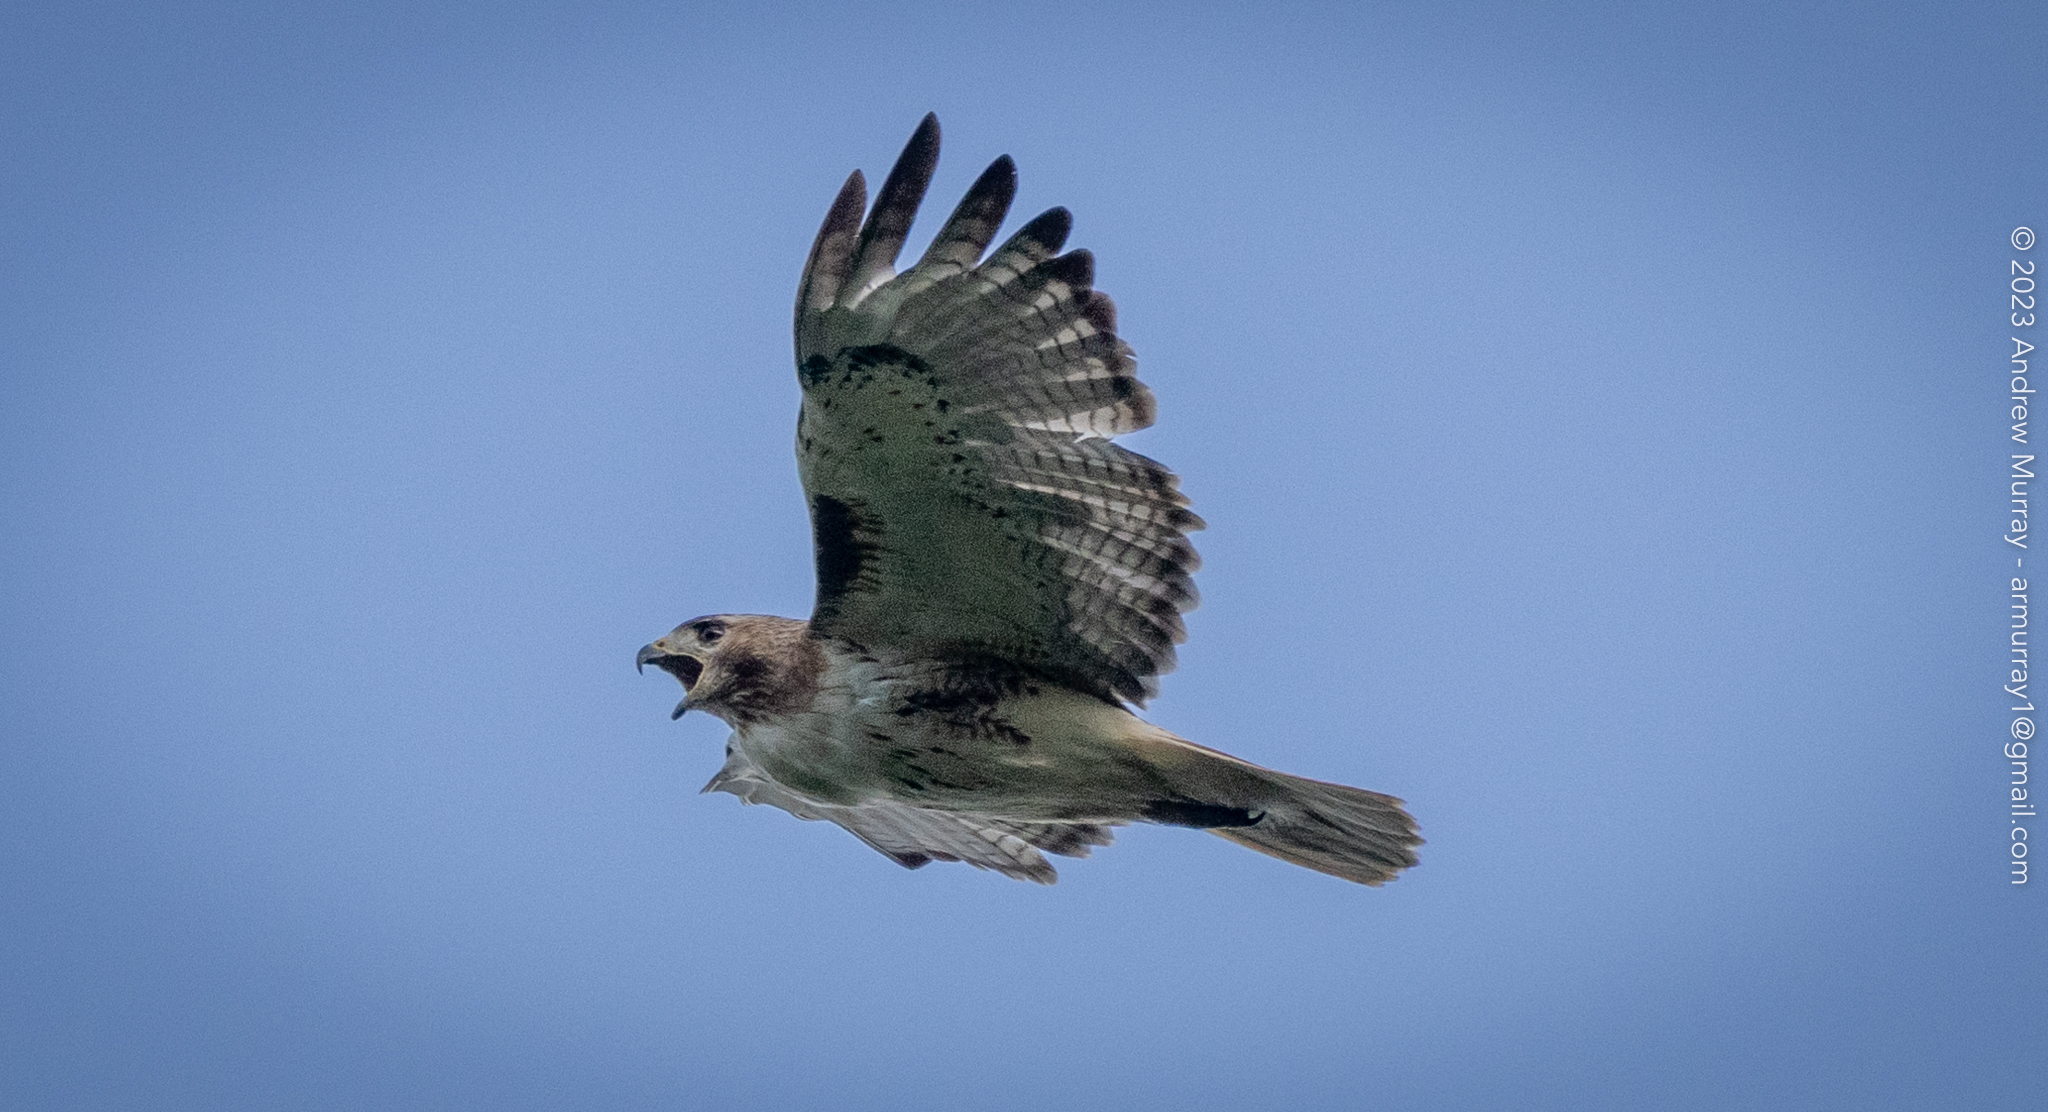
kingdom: Animalia
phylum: Chordata
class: Aves
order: Accipitriformes
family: Accipitridae
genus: Buteo
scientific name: Buteo jamaicensis
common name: Red-tailed hawk
